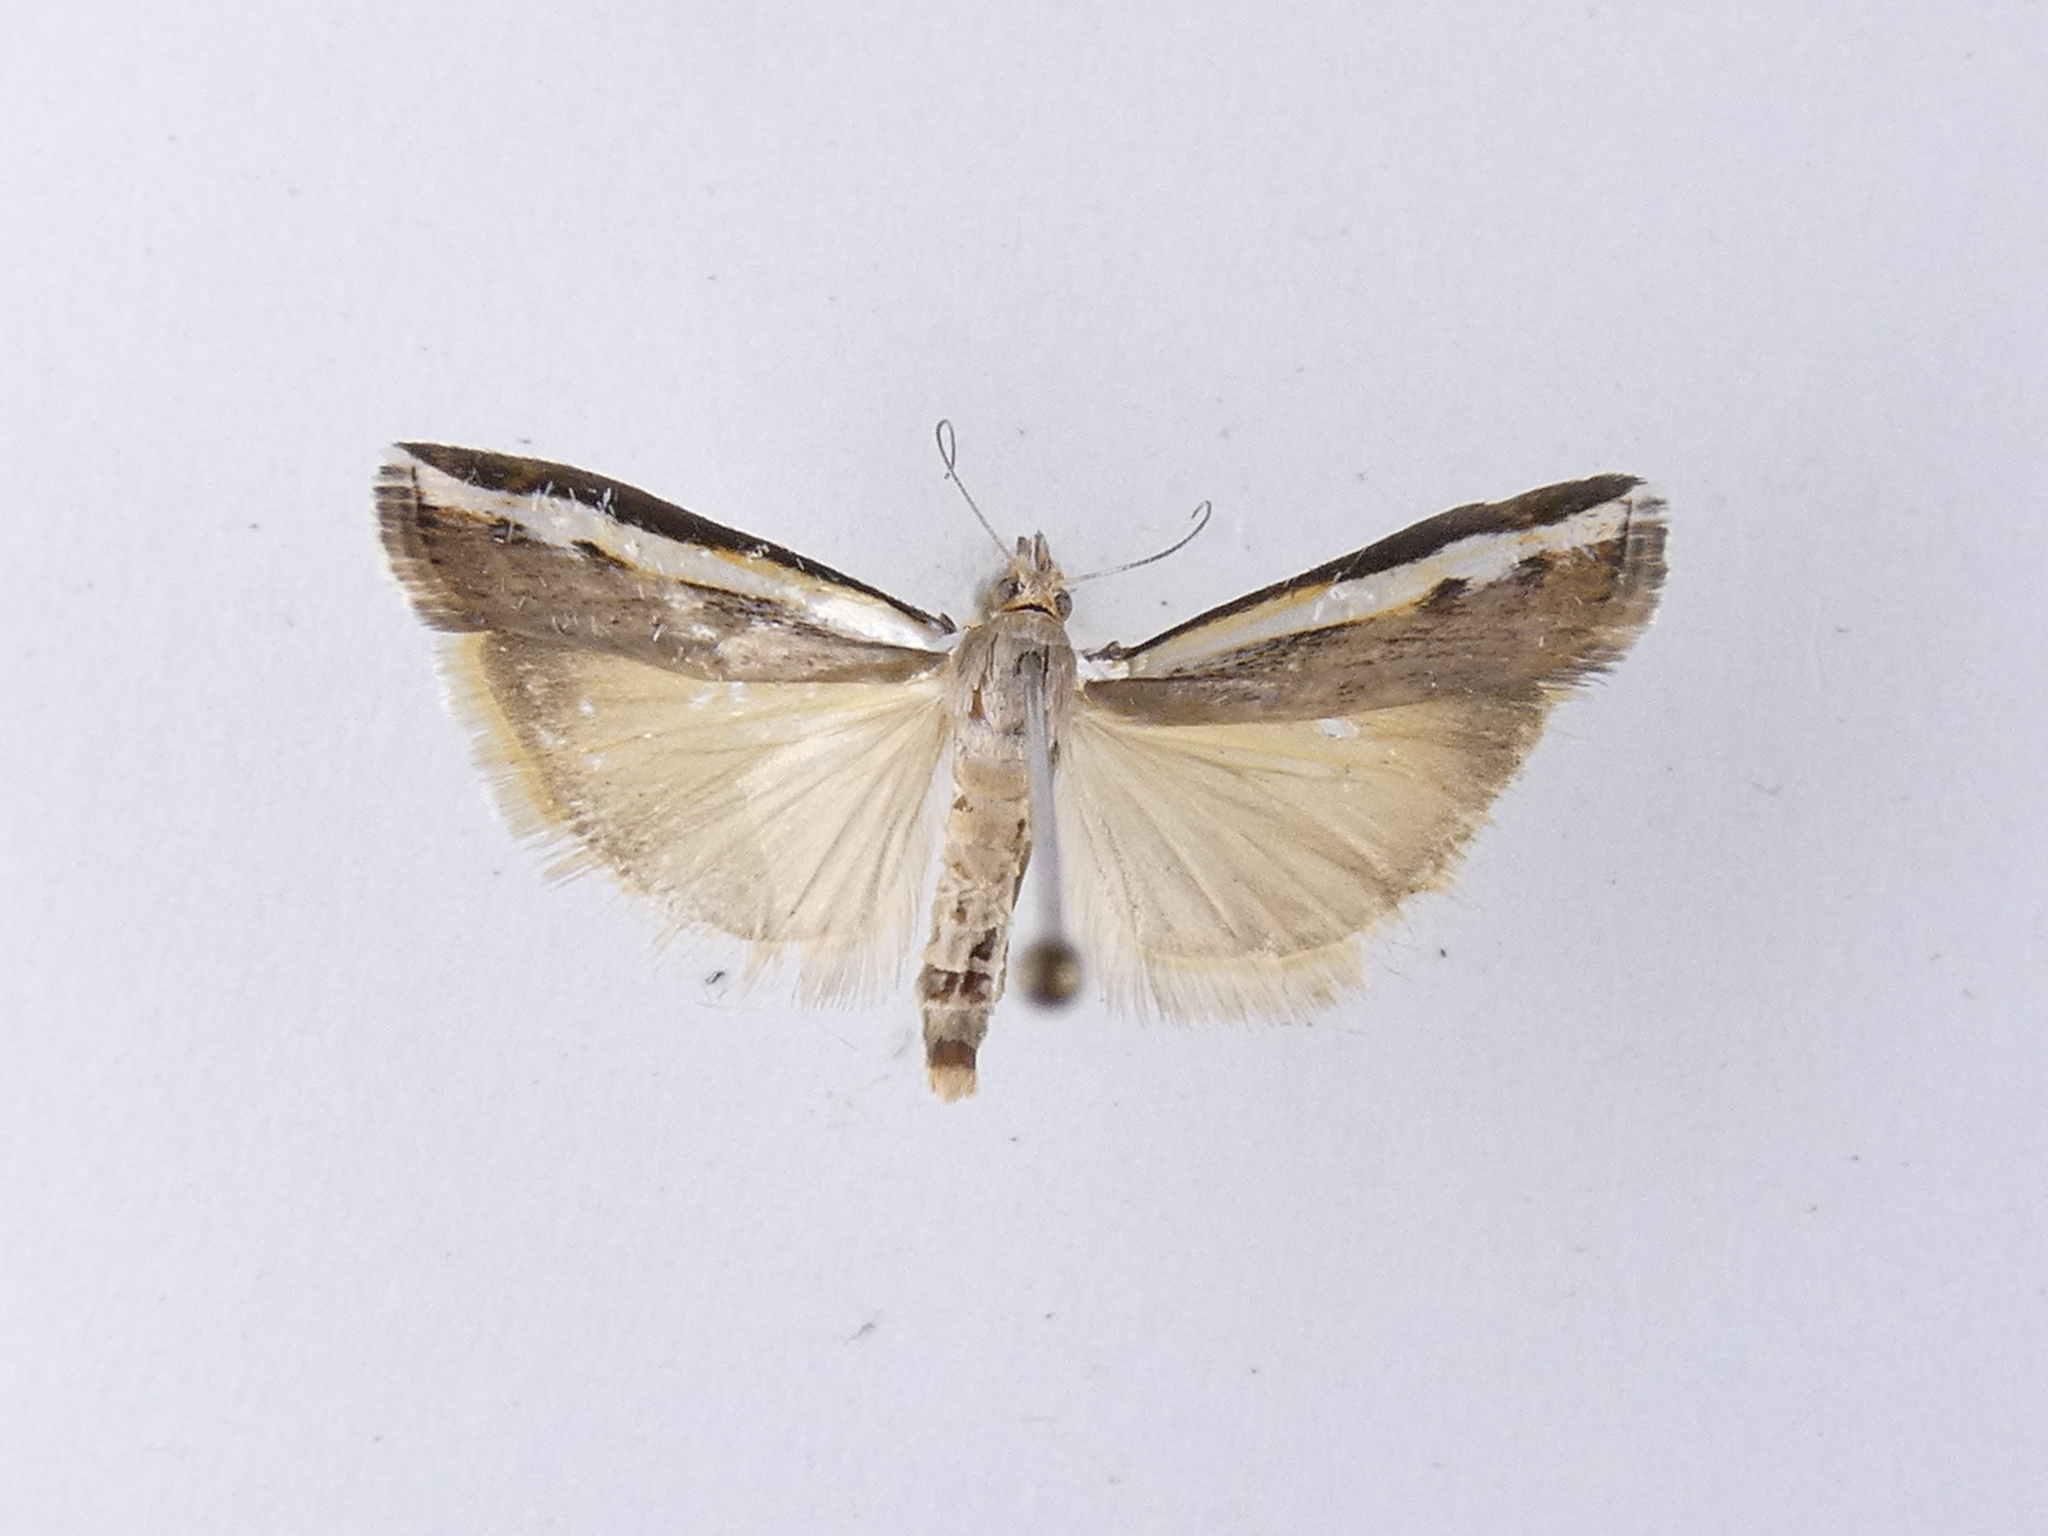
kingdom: Animalia
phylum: Arthropoda
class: Insecta
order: Lepidoptera
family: Crambidae
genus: Orocrambus
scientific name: Orocrambus flexuosellus
